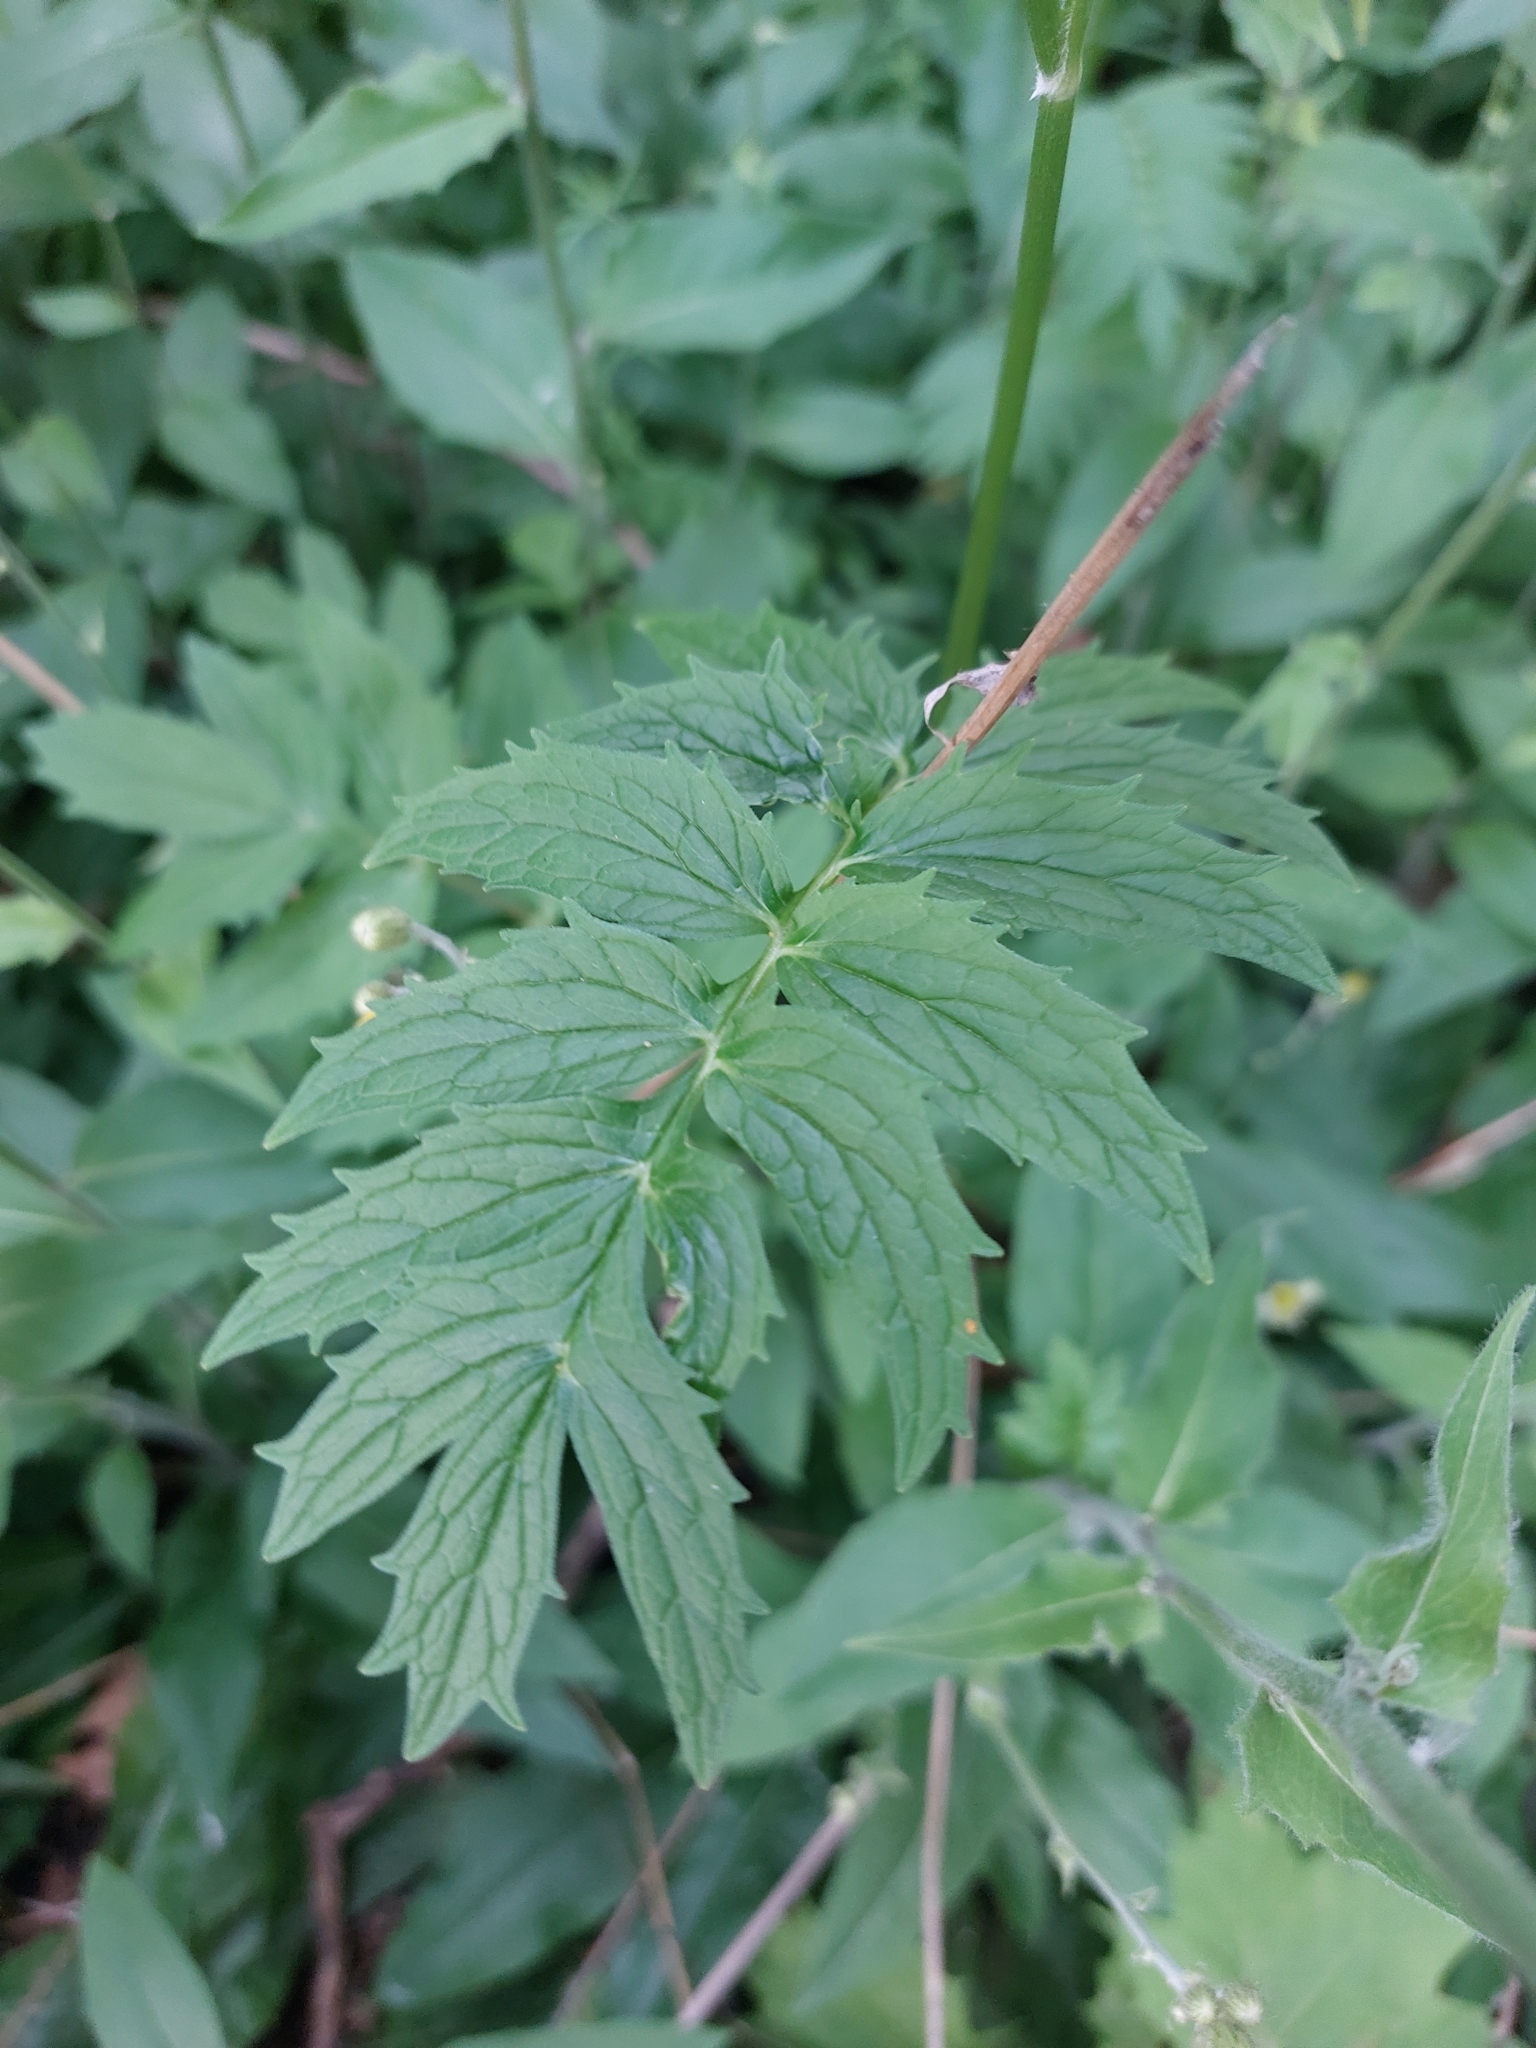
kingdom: Plantae
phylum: Tracheophyta
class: Magnoliopsida
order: Dipsacales
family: Caprifoliaceae
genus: Valeriana
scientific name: Valeriana officinalis
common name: Common valerian
